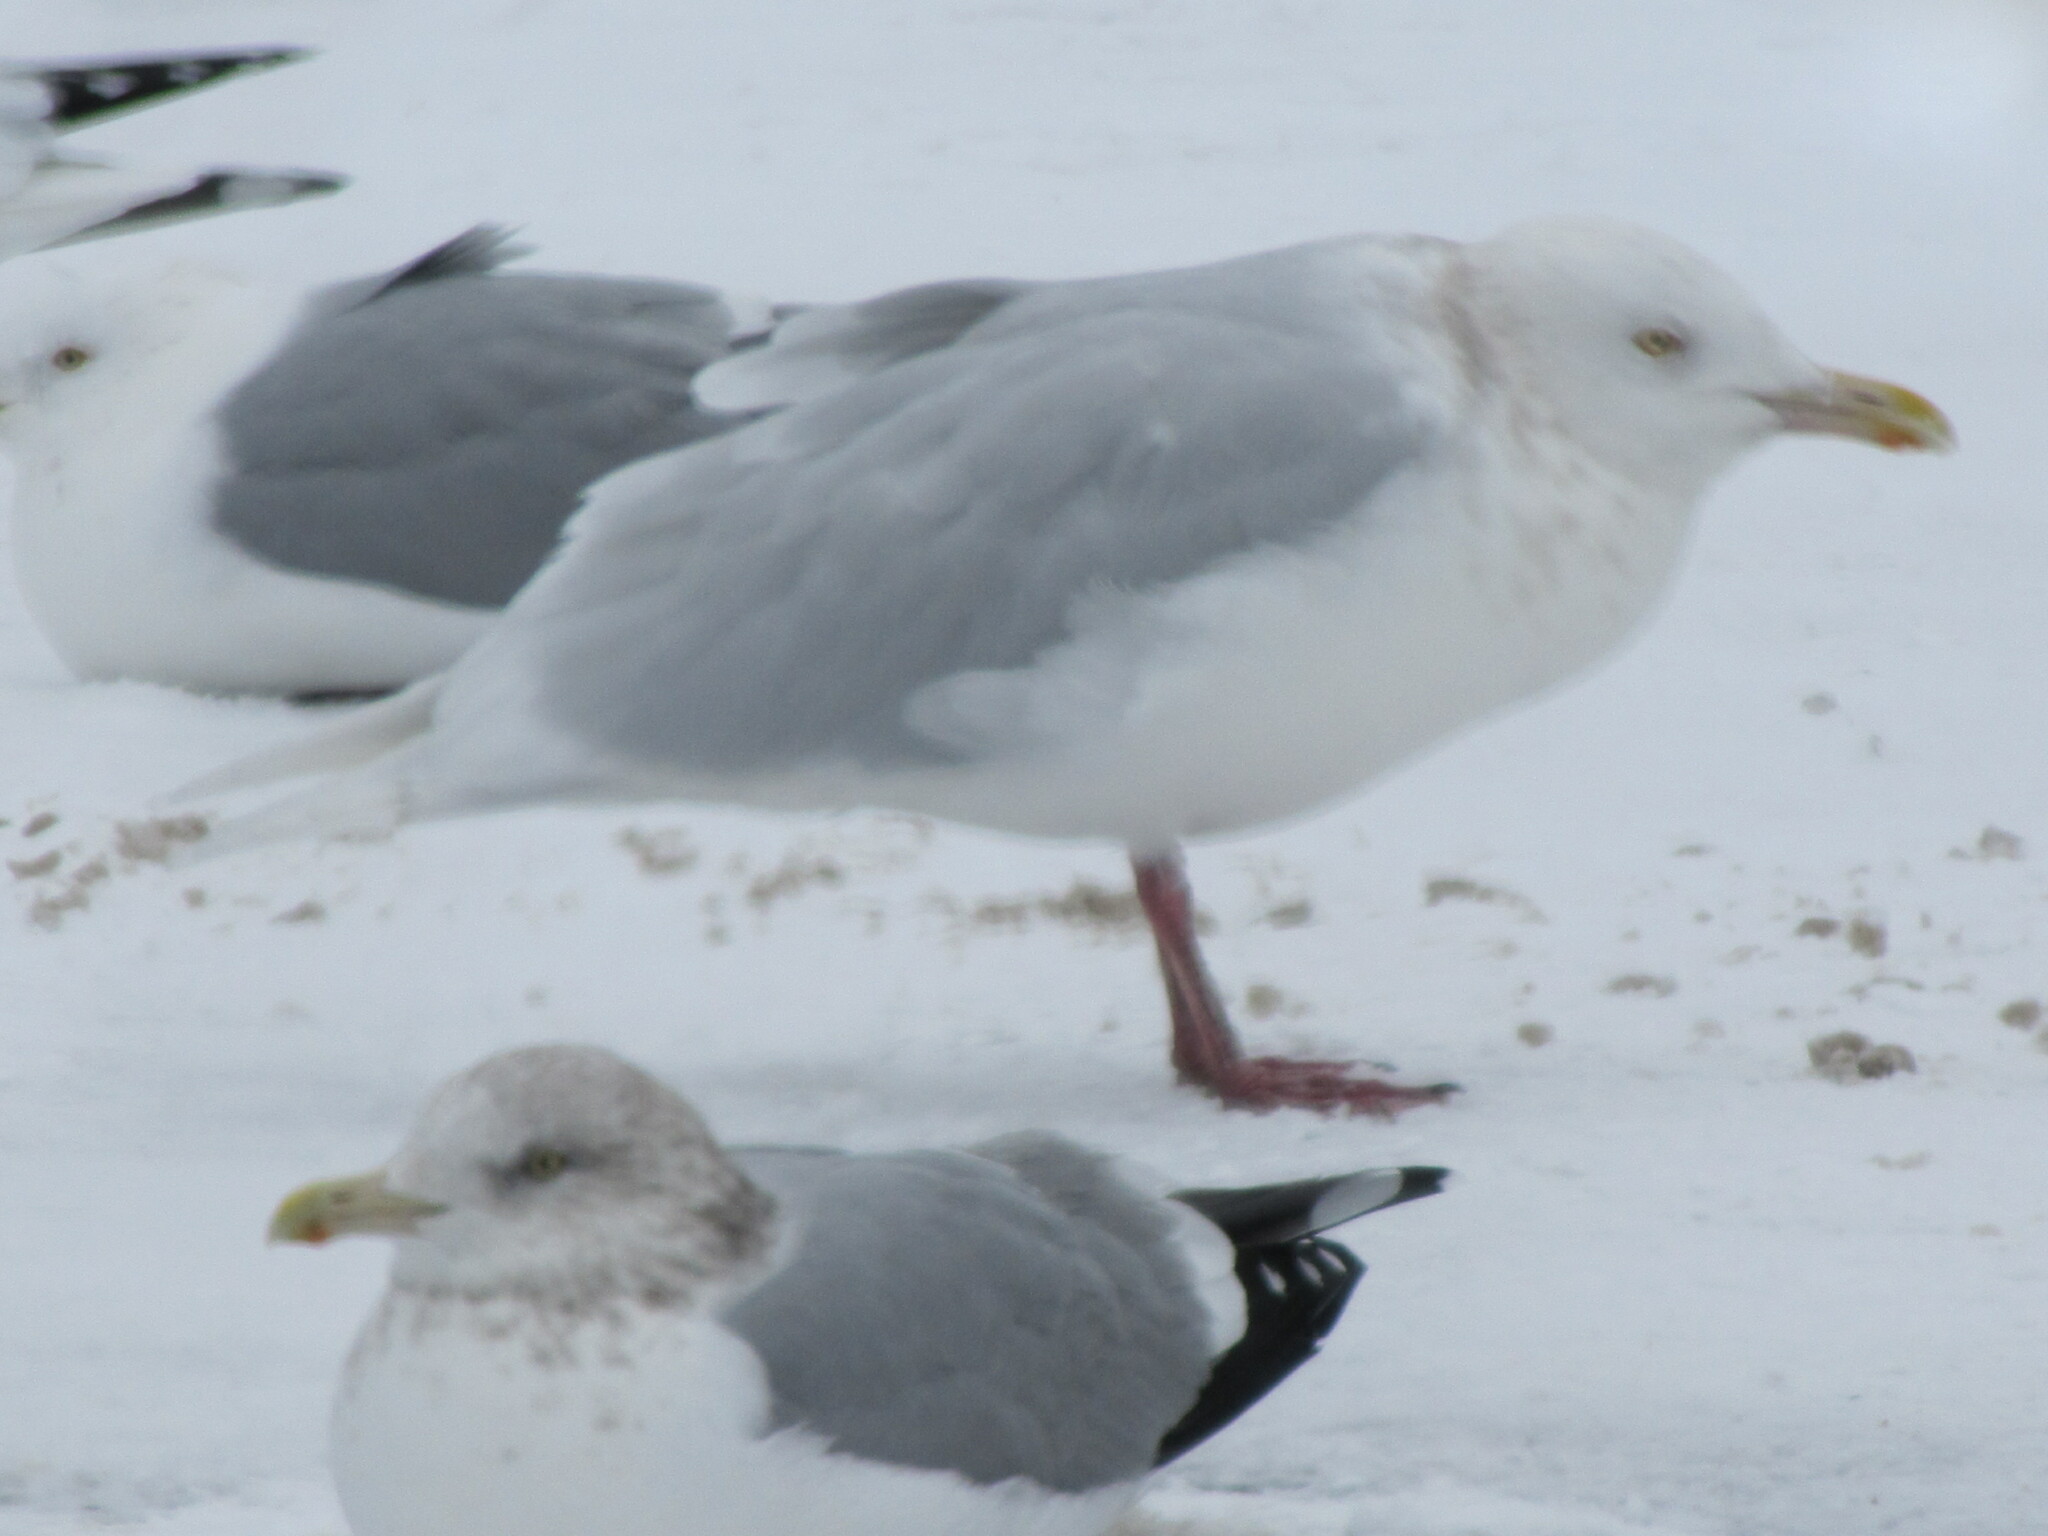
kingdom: Animalia
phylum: Chordata
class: Aves
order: Charadriiformes
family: Laridae
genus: Larus
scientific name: Larus hyperboreus
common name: Glaucous gull
